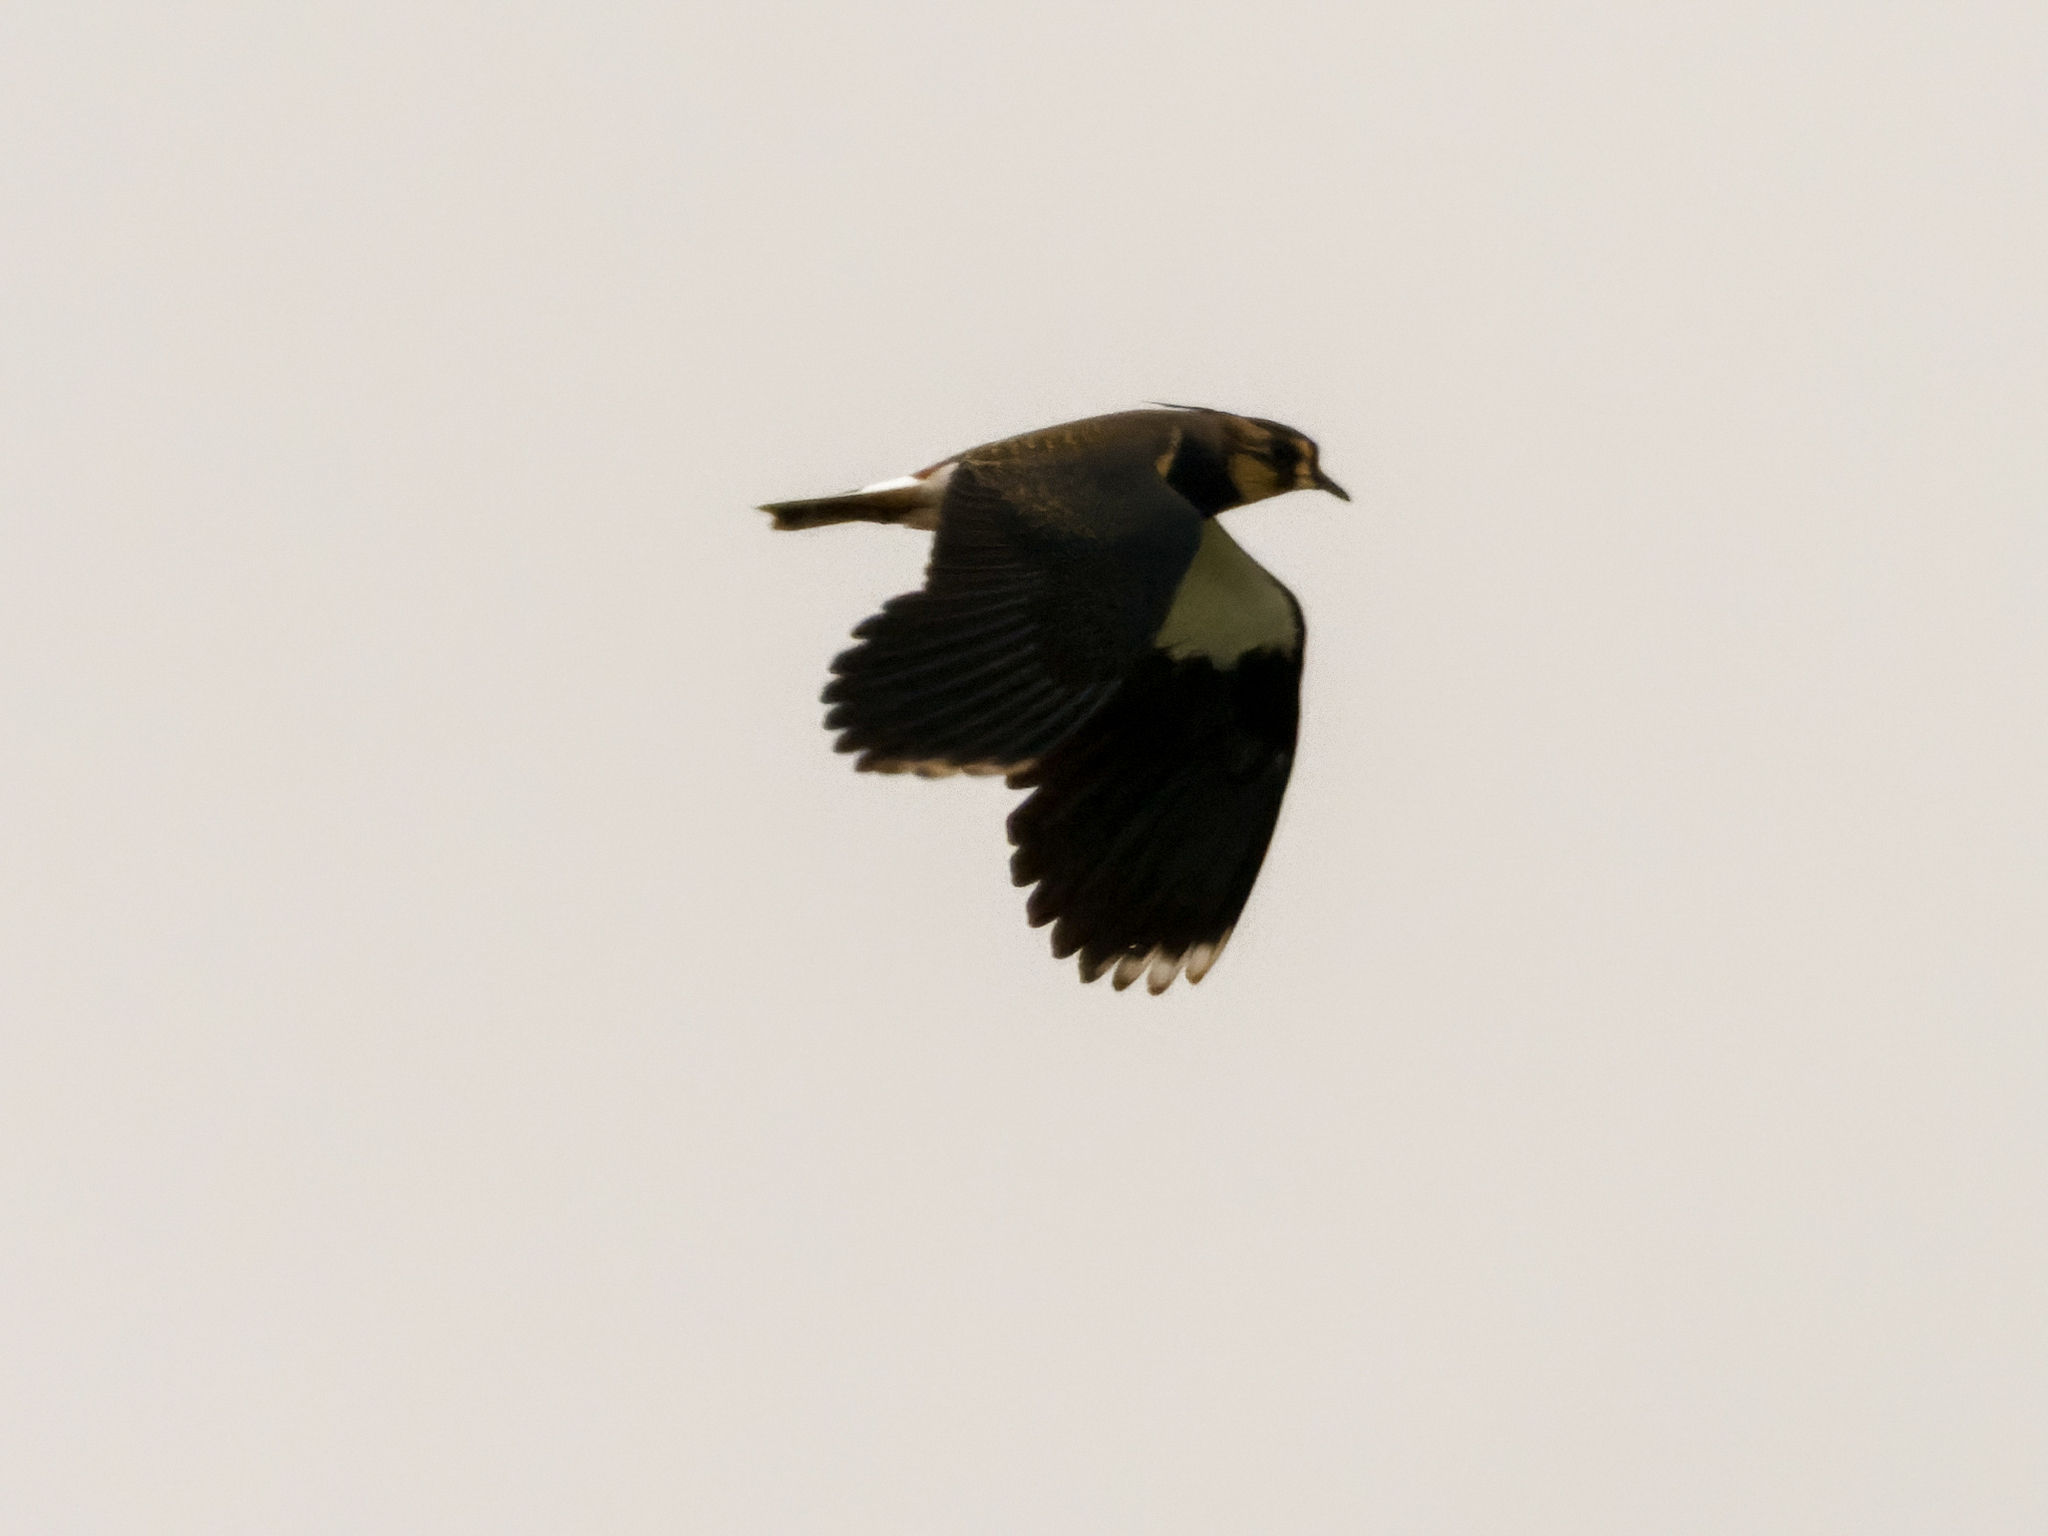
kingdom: Animalia
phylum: Chordata
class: Aves
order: Charadriiformes
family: Charadriidae
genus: Vanellus
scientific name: Vanellus vanellus
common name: Northern lapwing
